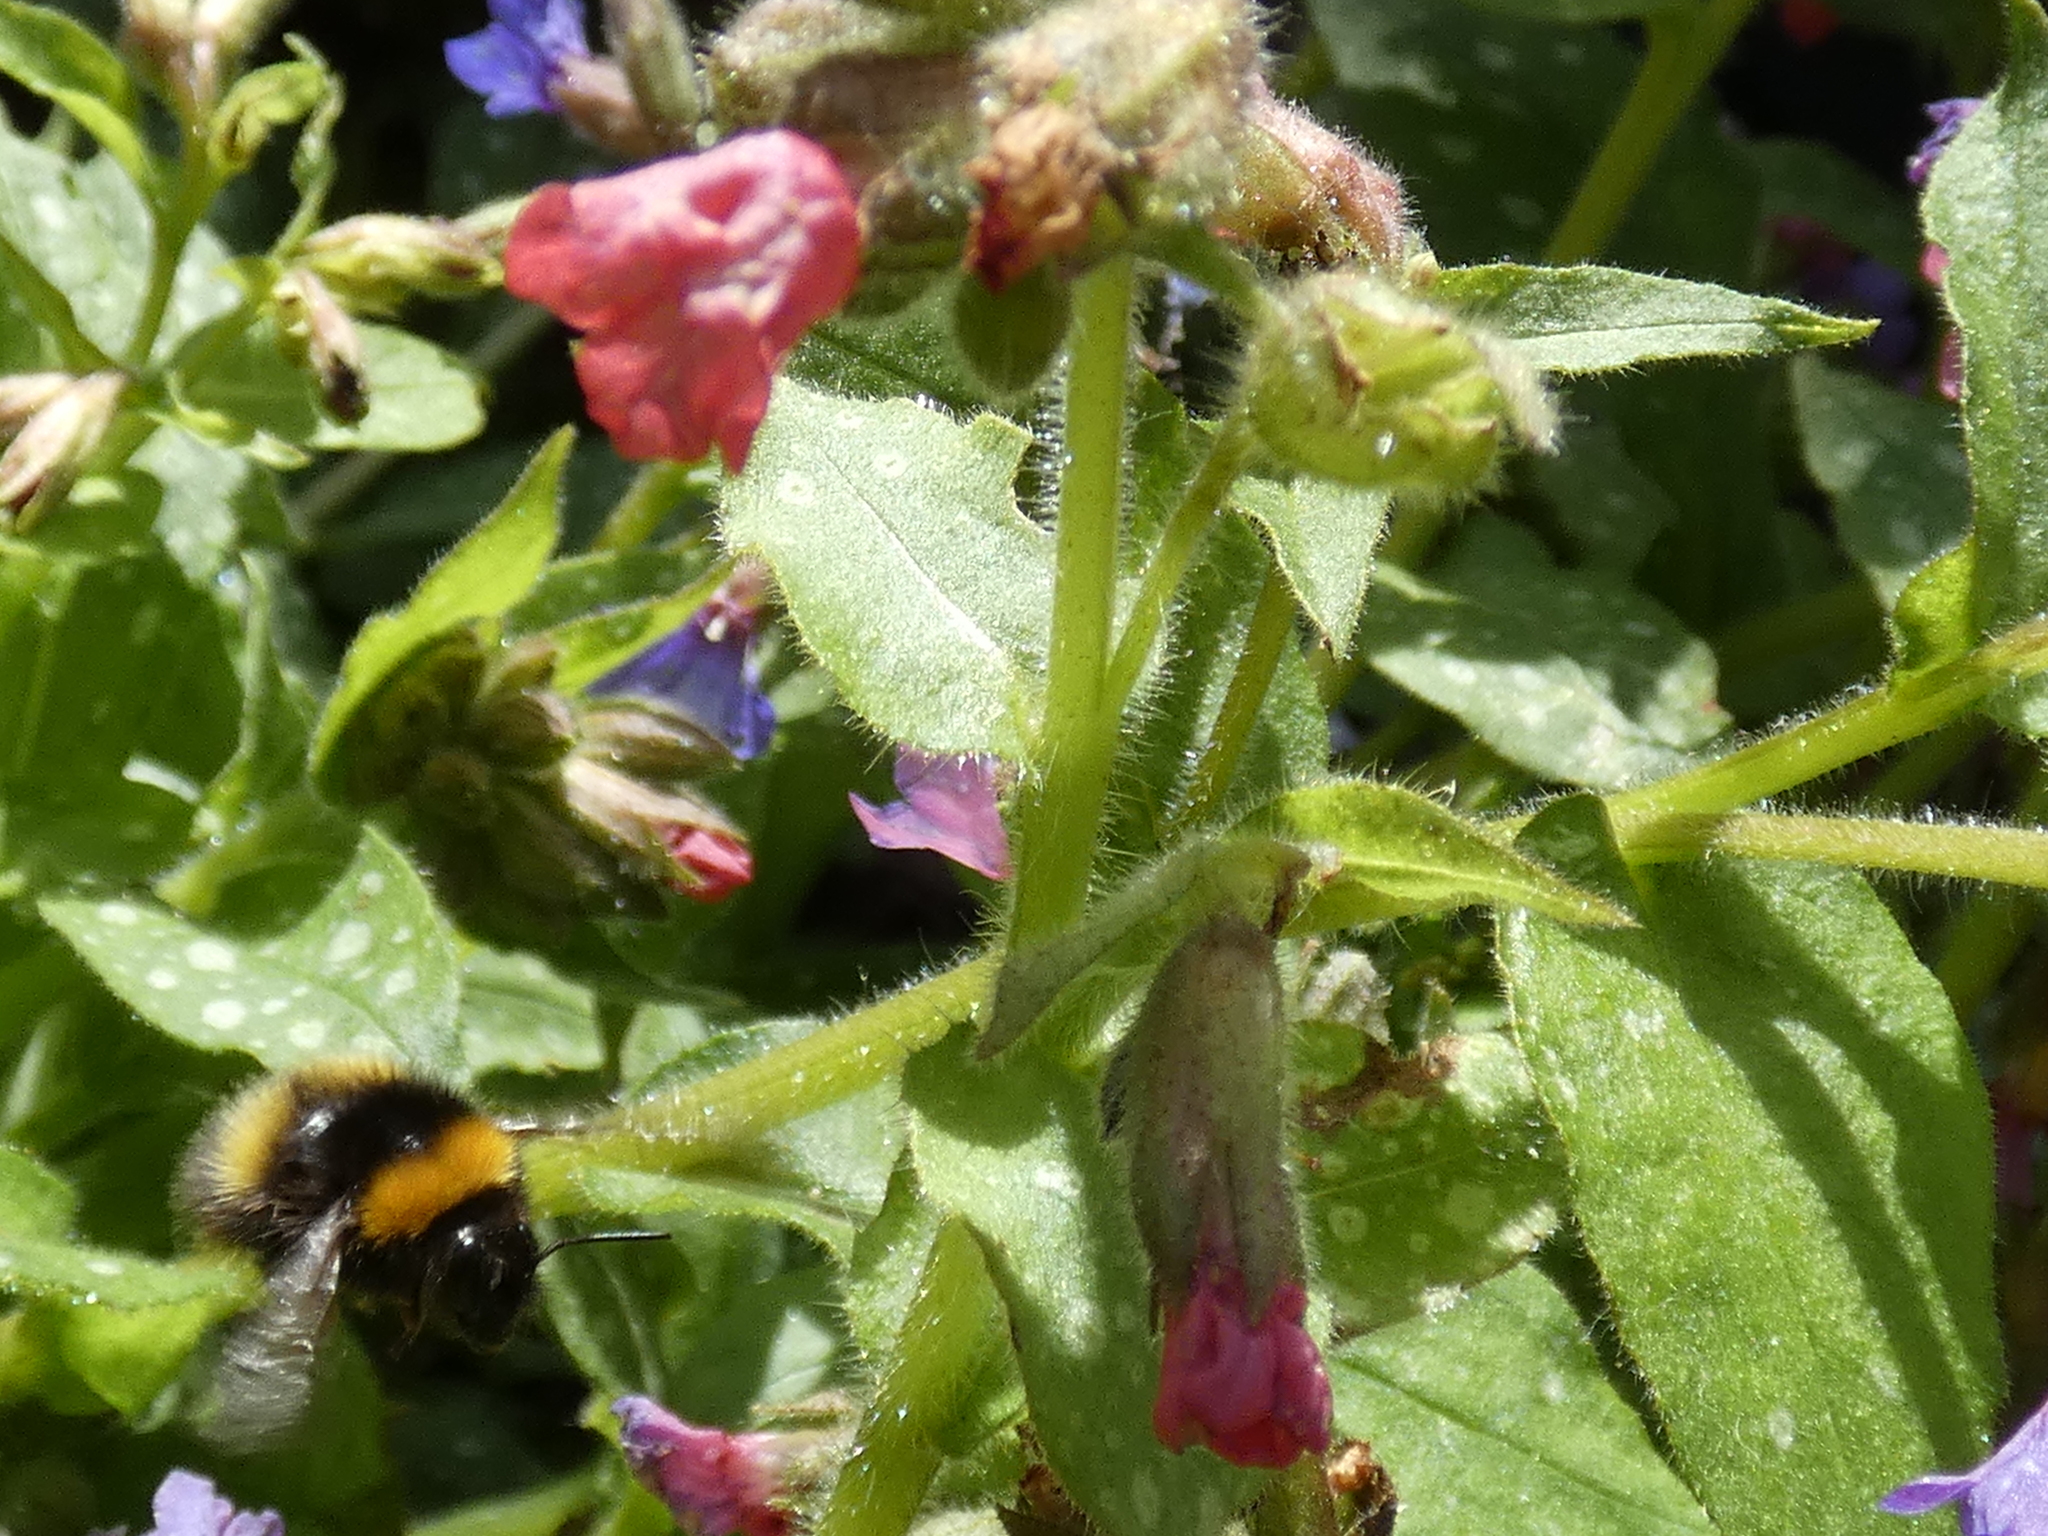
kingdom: Animalia
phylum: Arthropoda
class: Insecta
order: Hymenoptera
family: Apidae
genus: Bombus
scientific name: Bombus pratorum
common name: Early humble-bee
